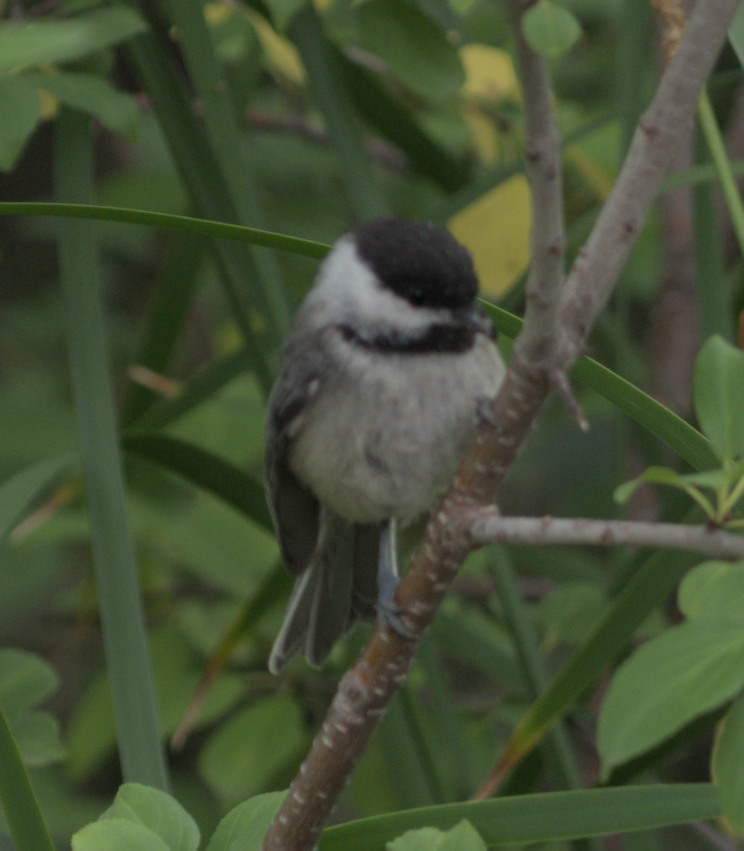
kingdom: Animalia
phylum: Chordata
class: Aves
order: Passeriformes
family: Paridae
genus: Poecile
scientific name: Poecile atricapillus
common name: Black-capped chickadee
